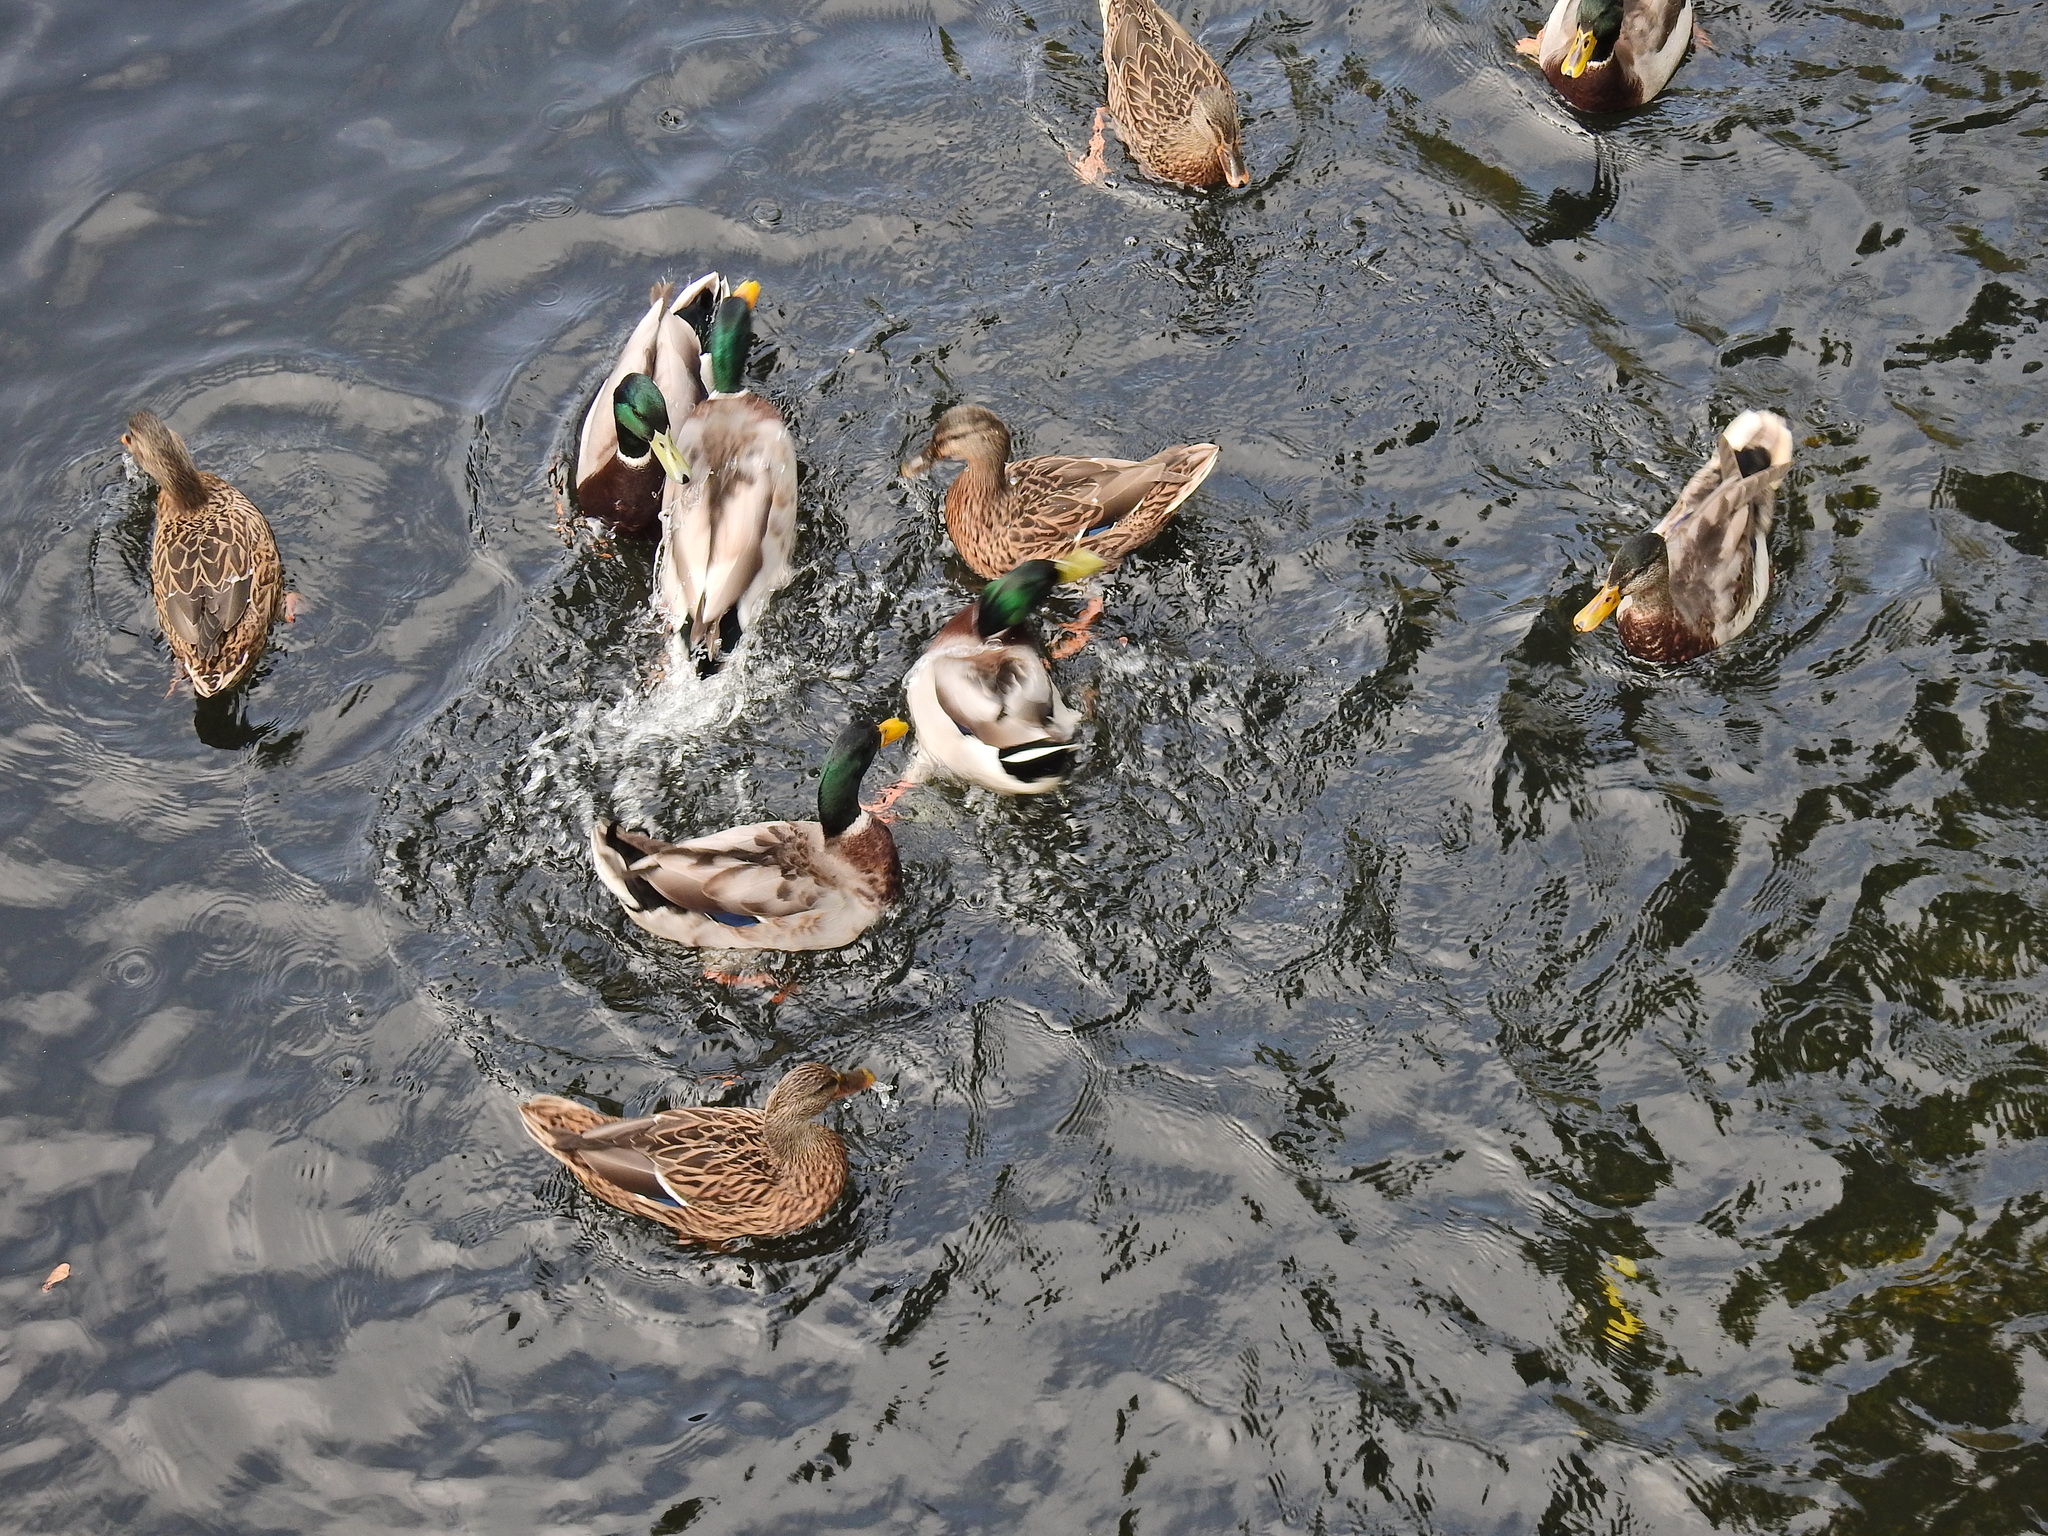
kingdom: Animalia
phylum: Chordata
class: Aves
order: Anseriformes
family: Anatidae
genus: Anas
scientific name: Anas platyrhynchos
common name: Mallard
